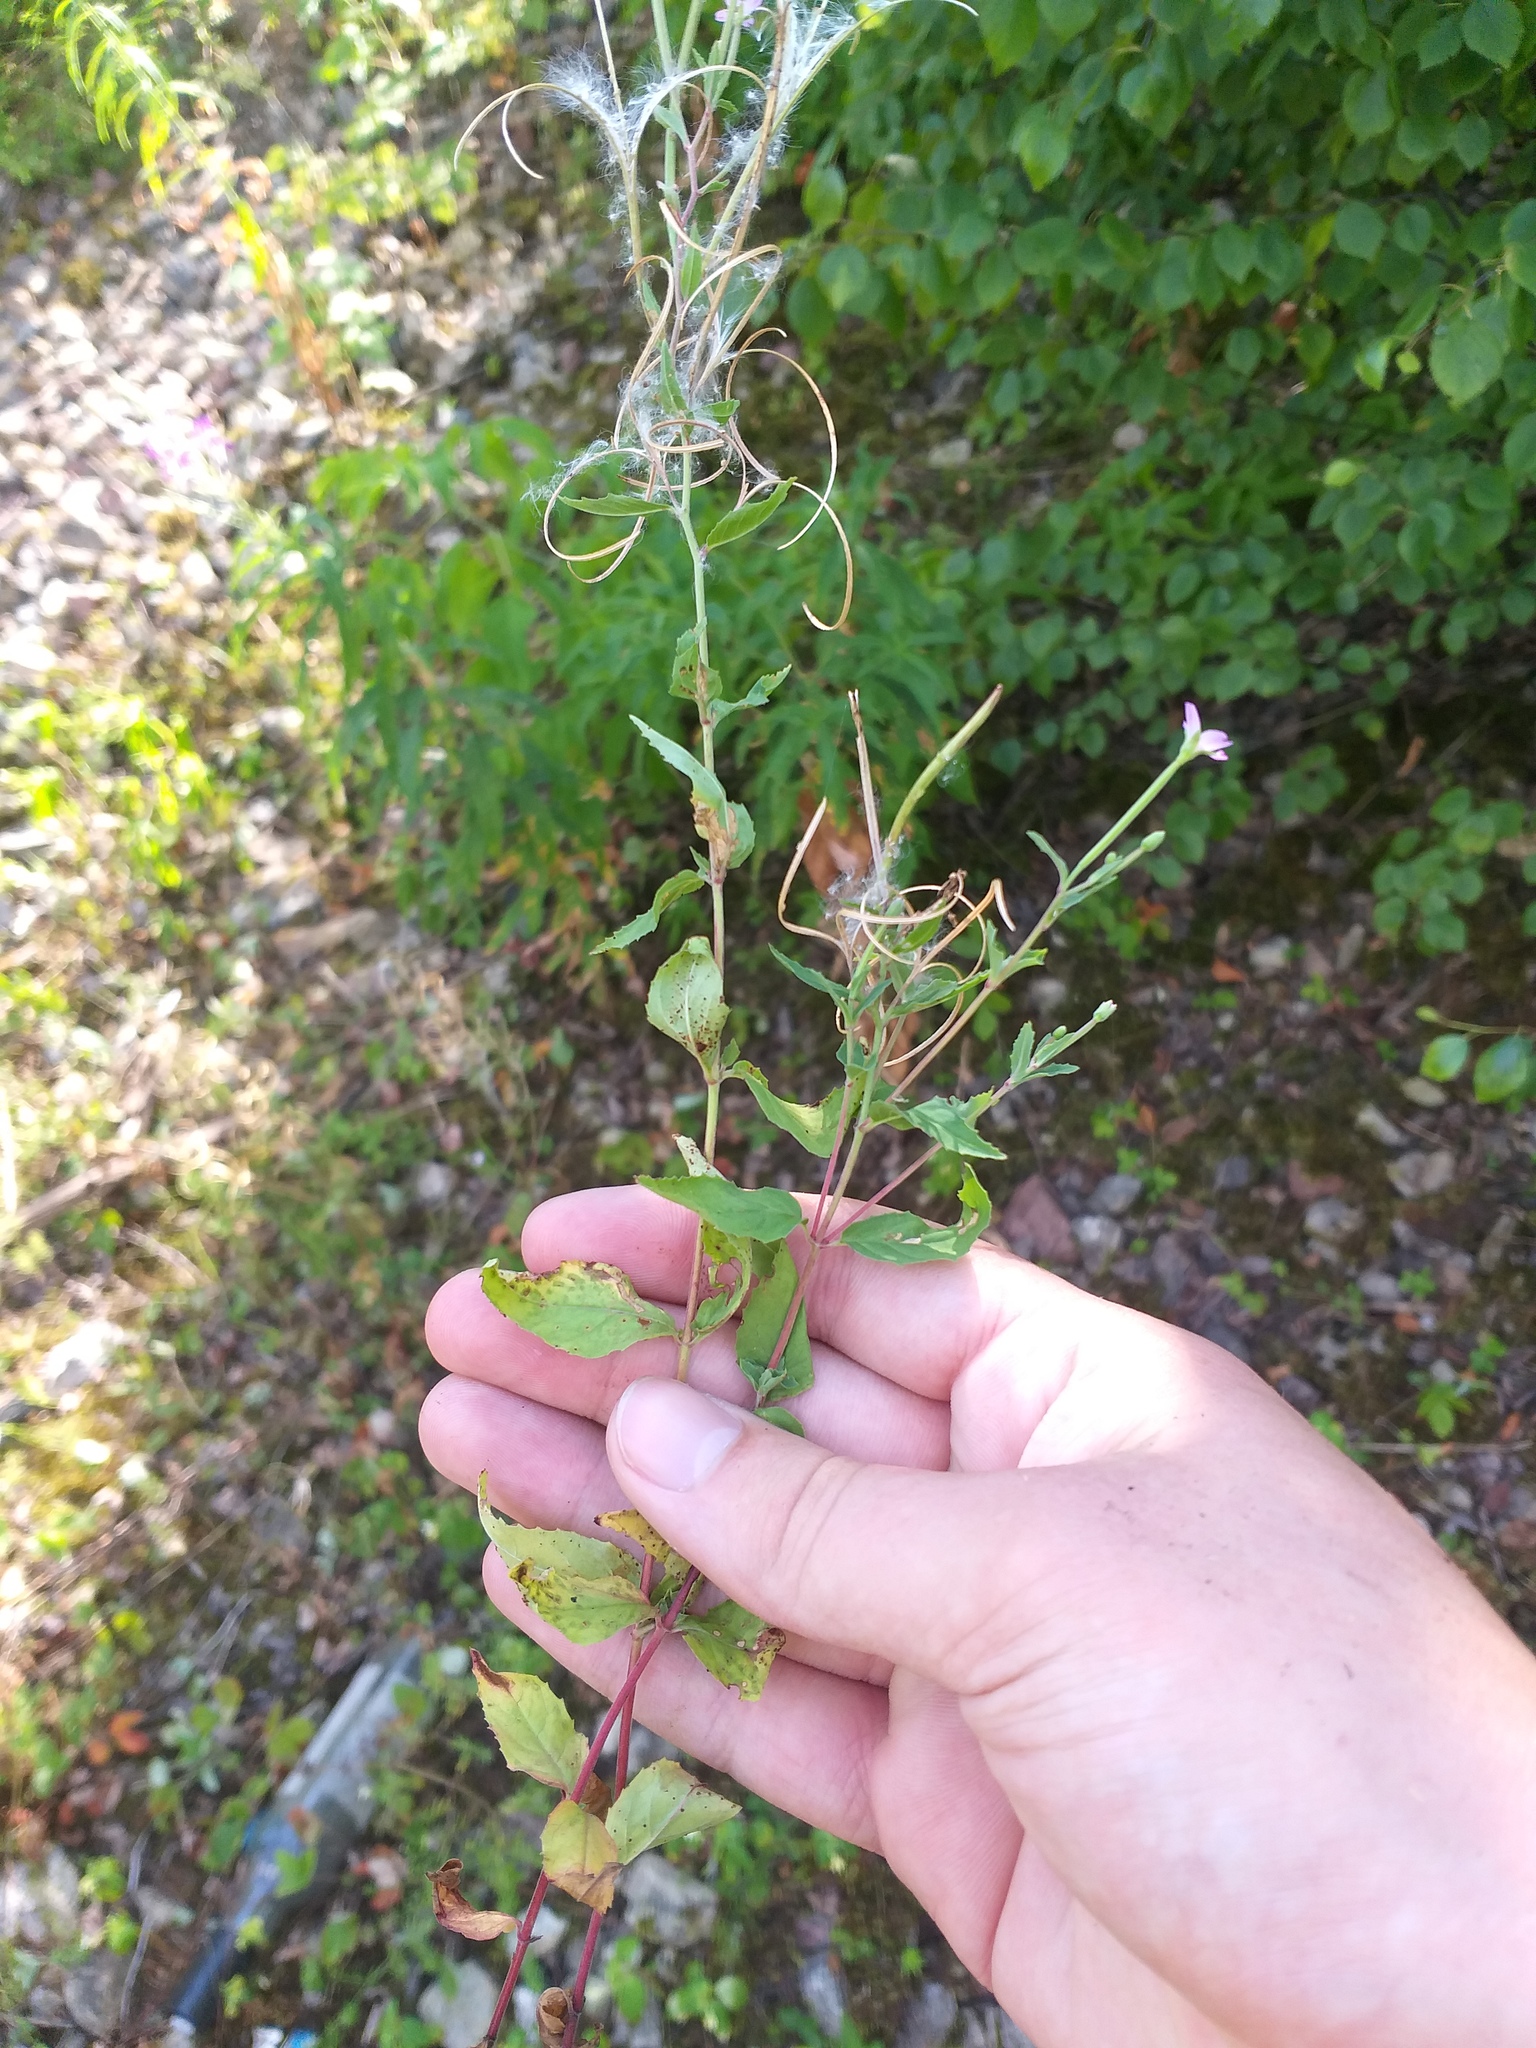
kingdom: Plantae
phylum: Tracheophyta
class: Magnoliopsida
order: Myrtales
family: Onagraceae
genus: Epilobium
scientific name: Epilobium montanum
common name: Broad-leaved willowherb
